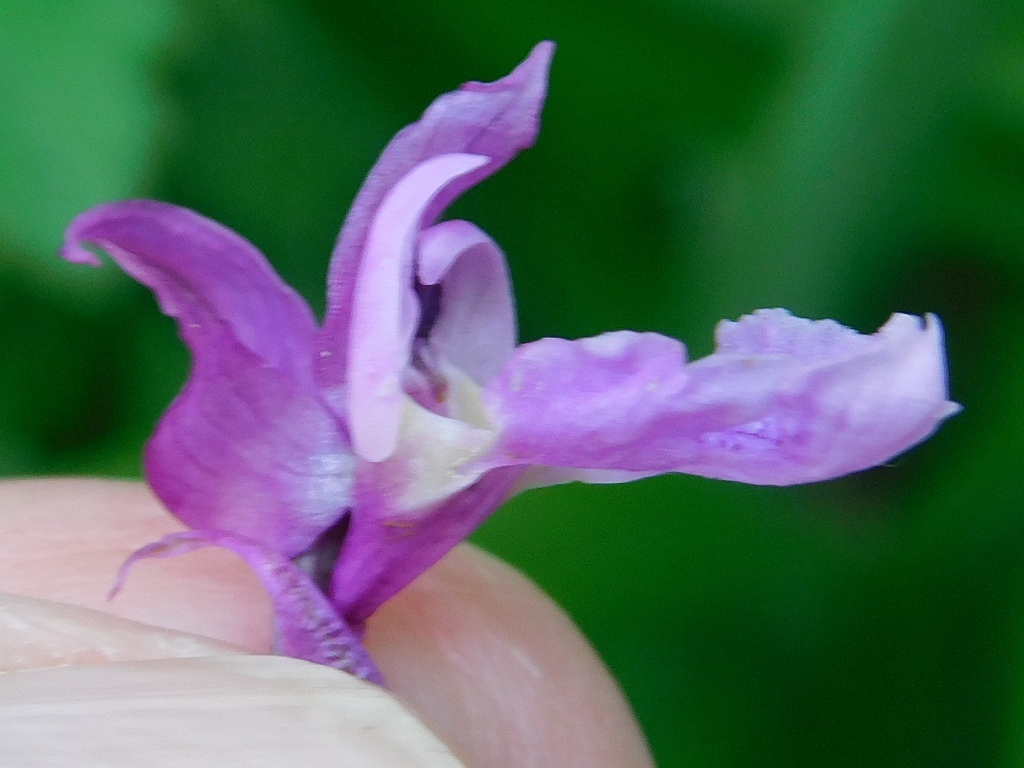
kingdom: Plantae
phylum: Tracheophyta
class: Liliopsida
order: Asparagales
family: Orchidaceae
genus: Orchis
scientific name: Orchis mascula
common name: Early-purple orchid
